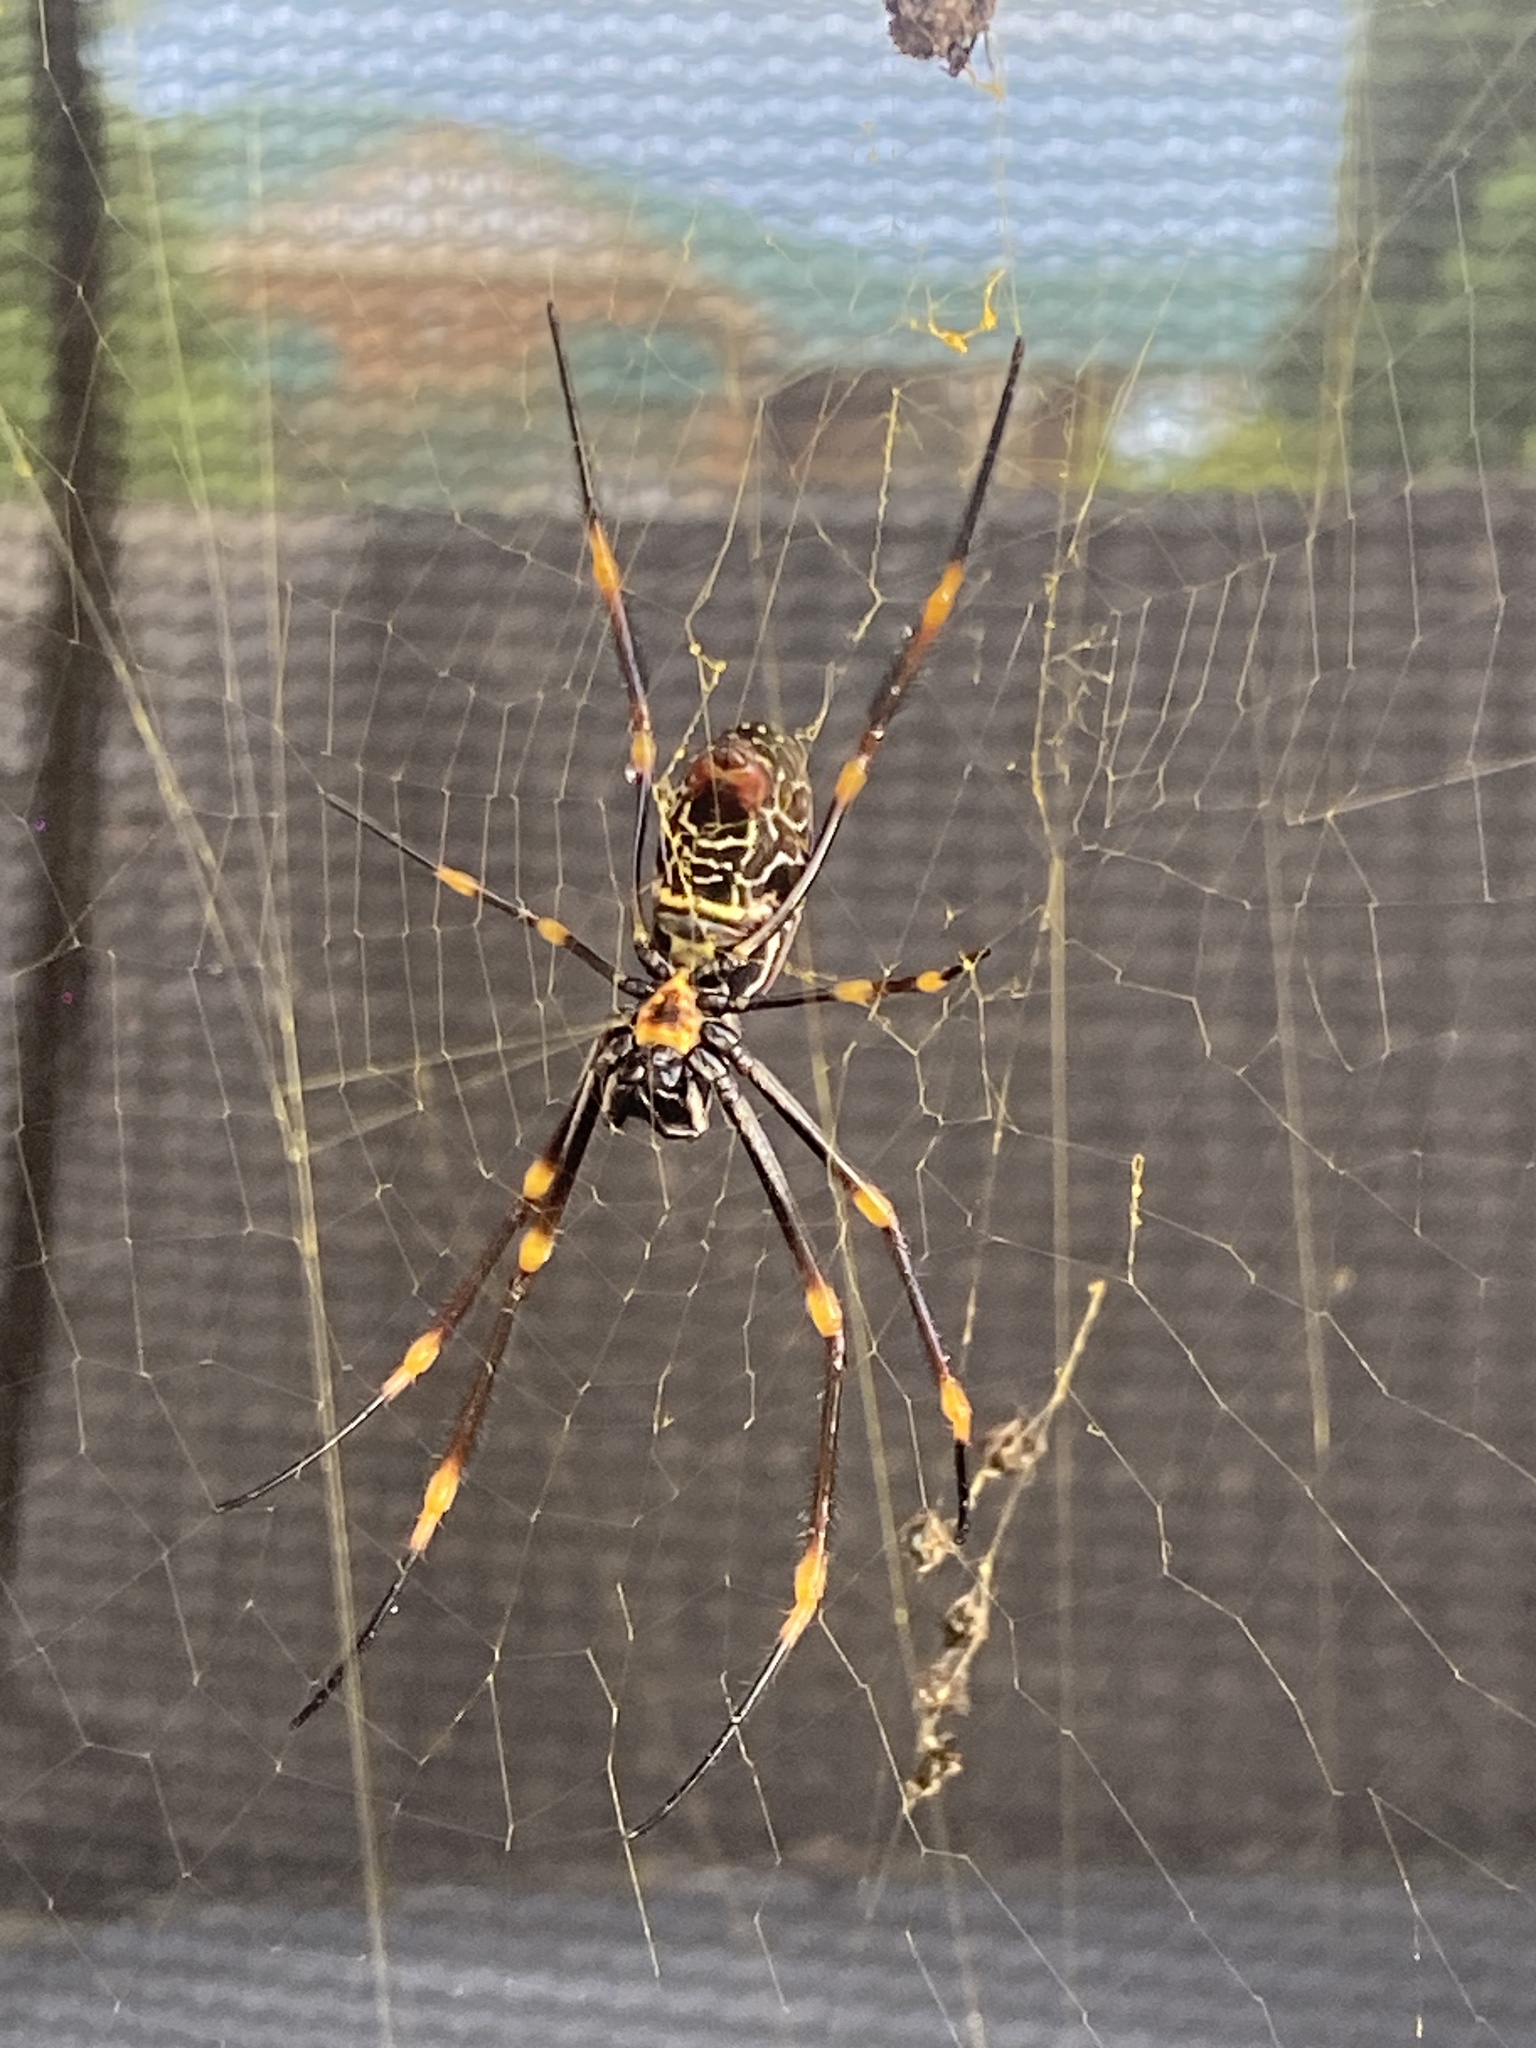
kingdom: Animalia
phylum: Arthropoda
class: Arachnida
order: Araneae
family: Araneidae
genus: Trichonephila
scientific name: Trichonephila plumipes
